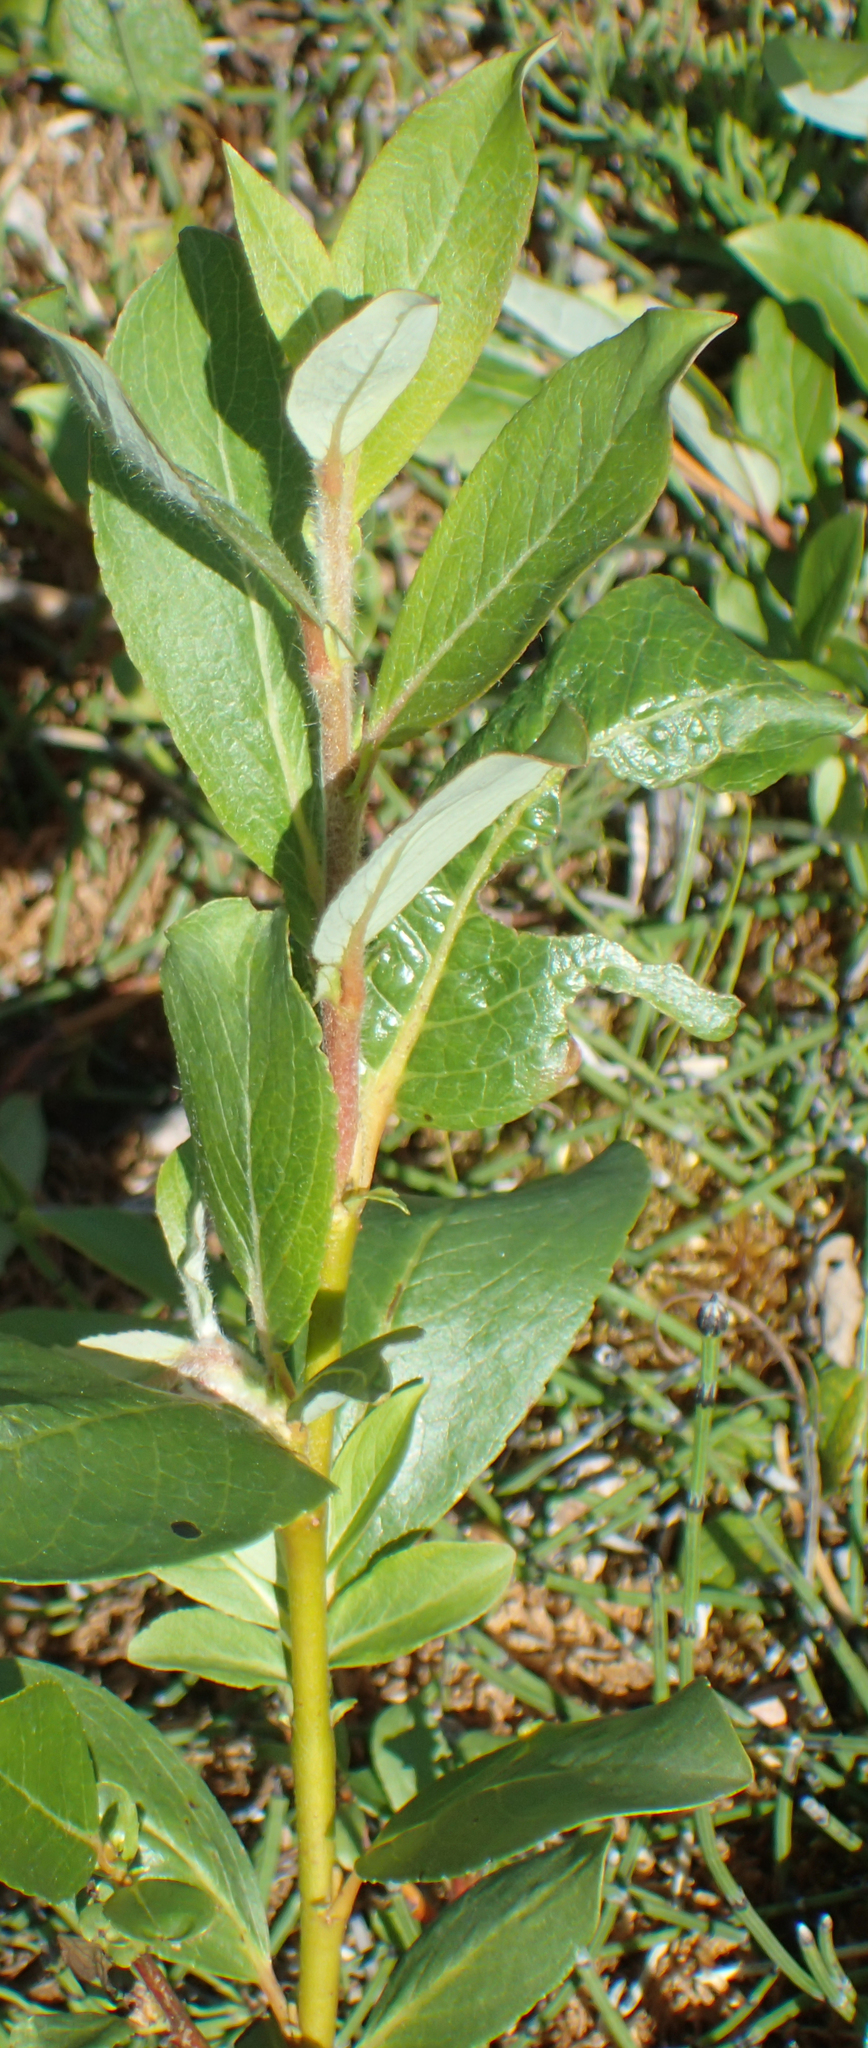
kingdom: Plantae
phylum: Tracheophyta
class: Magnoliopsida
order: Malpighiales
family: Salicaceae
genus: Salix
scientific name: Salix alaxensis
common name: Feltleaf willow
